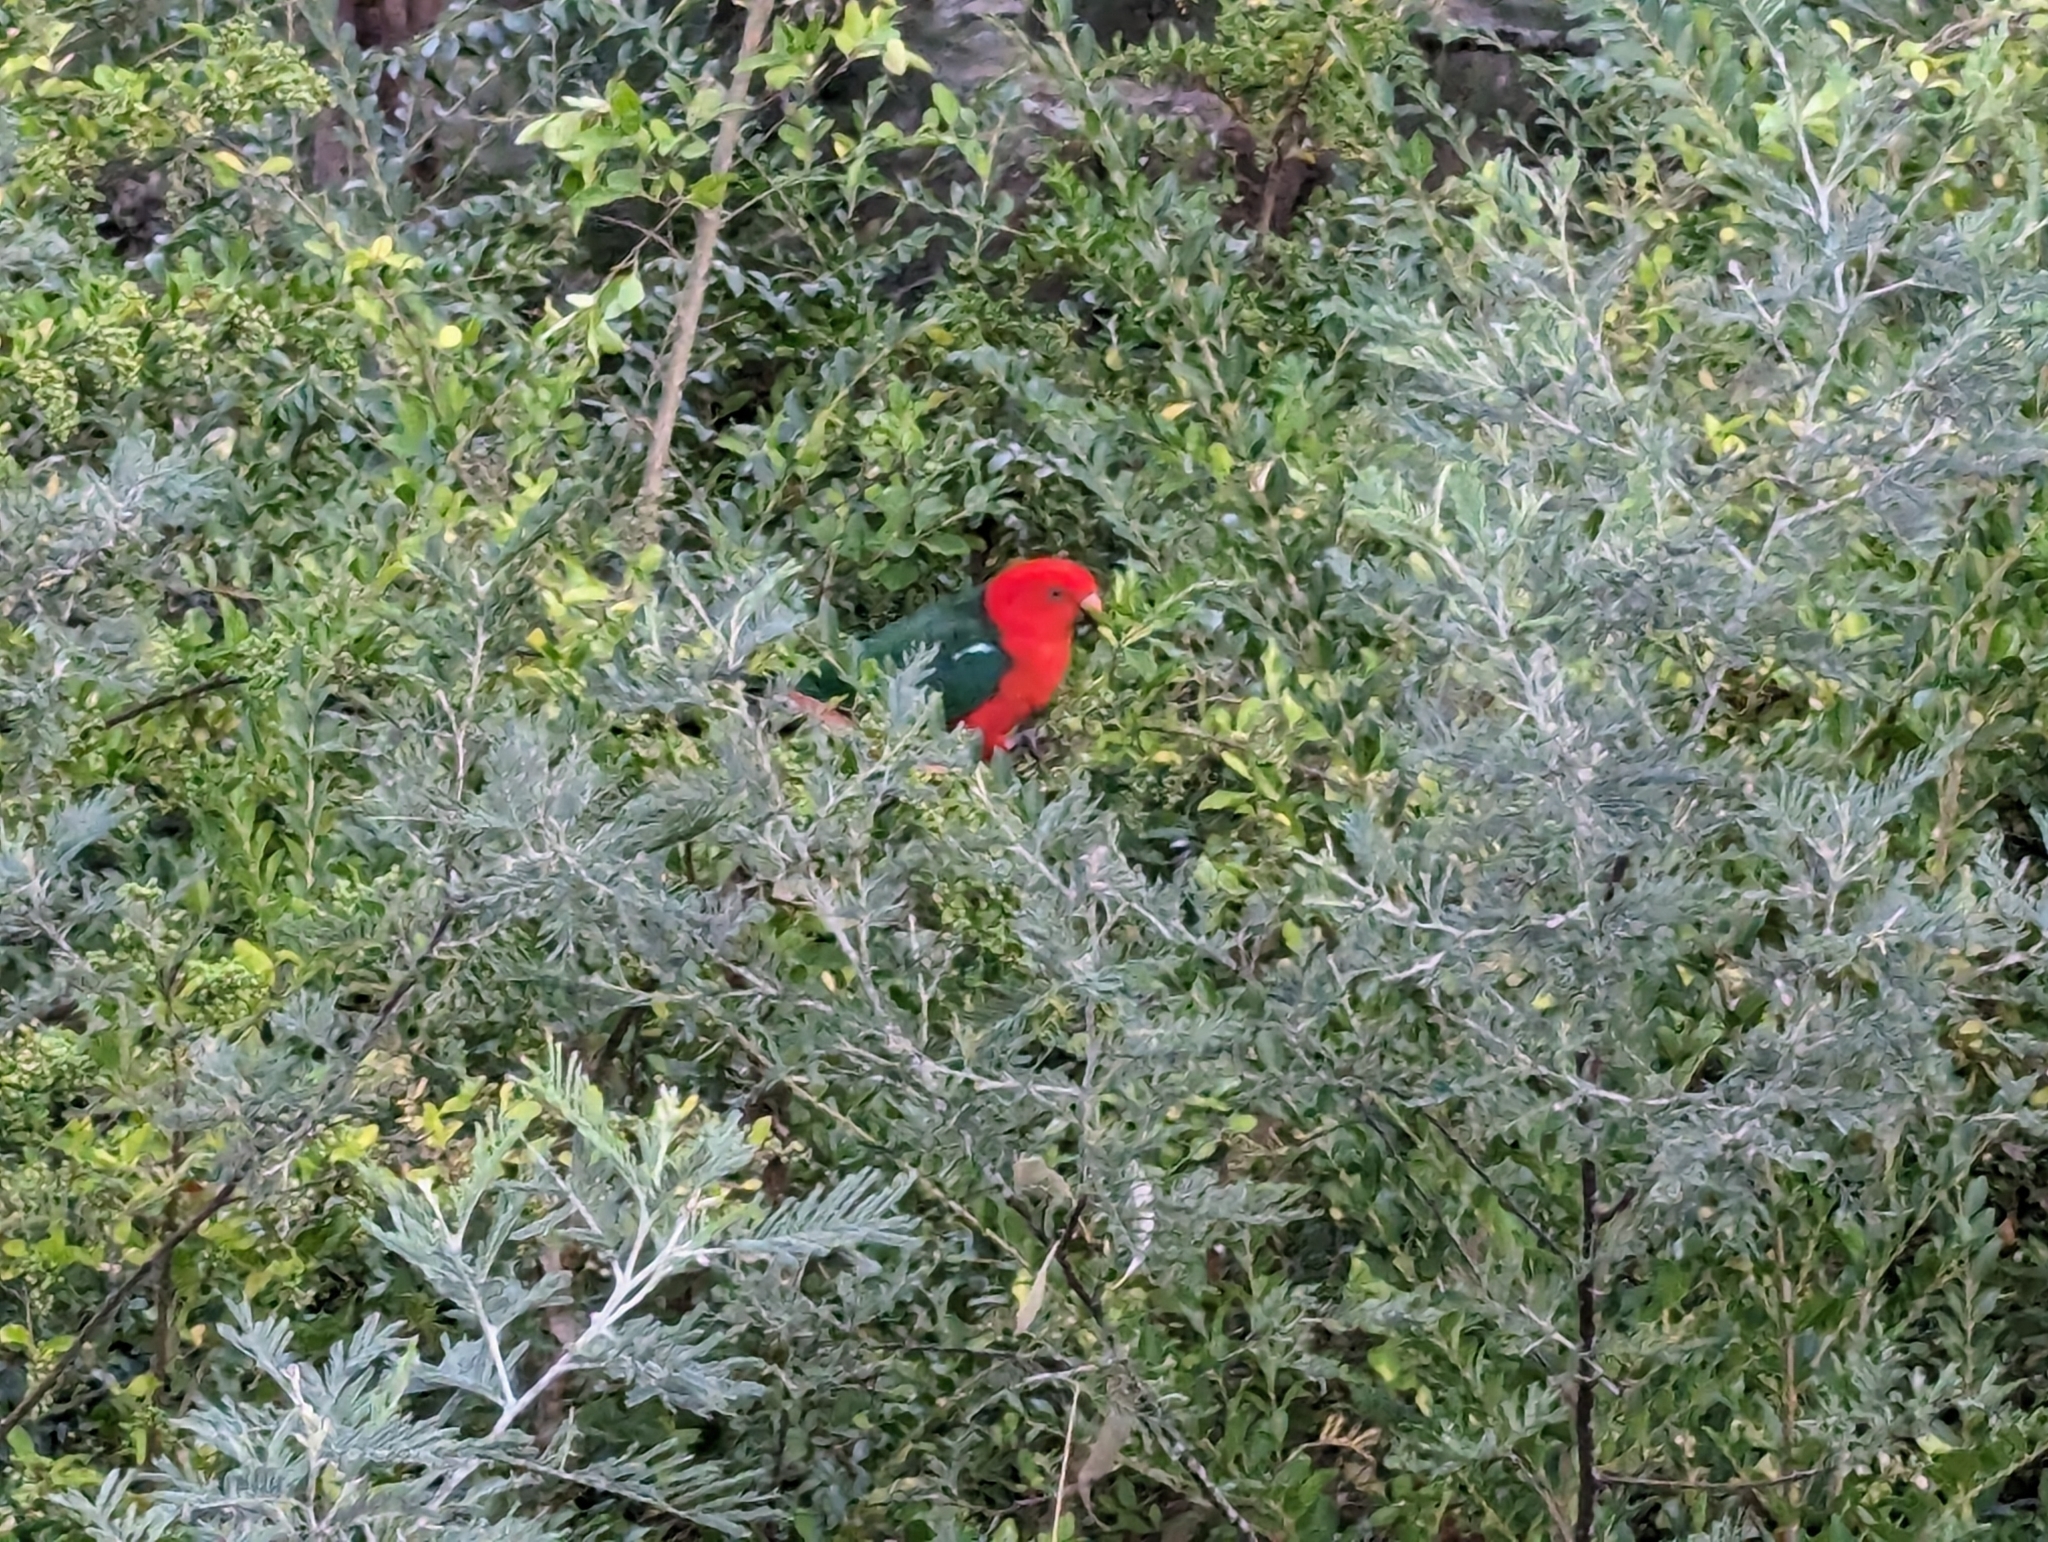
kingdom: Animalia
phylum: Chordata
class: Aves
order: Psittaciformes
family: Psittacidae
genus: Alisterus
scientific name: Alisterus scapularis
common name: Australian king parrot
